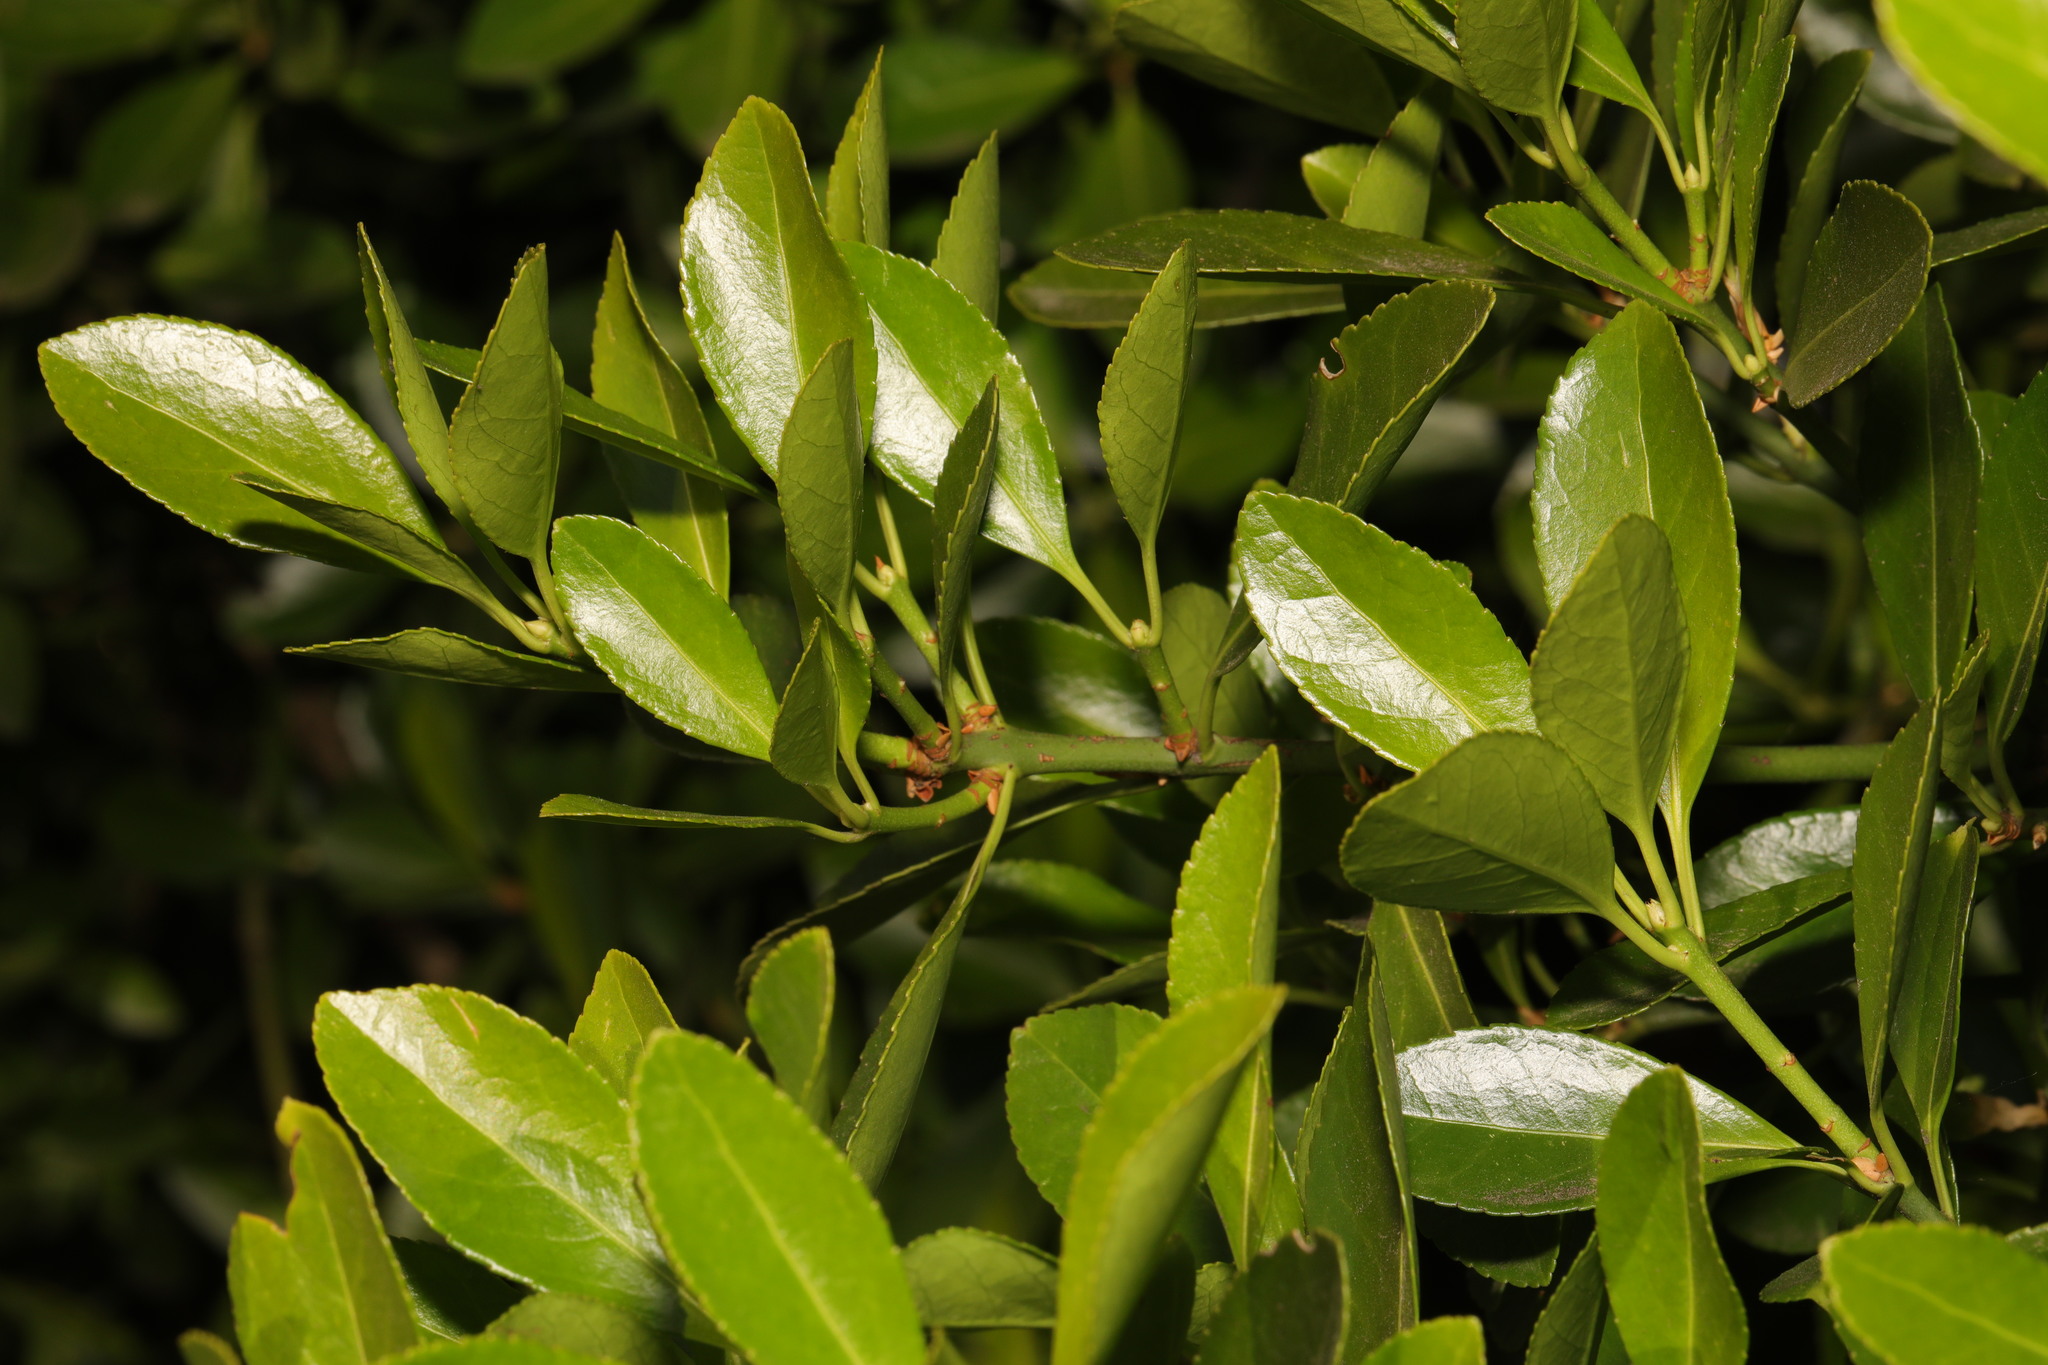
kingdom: Plantae
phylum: Tracheophyta
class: Magnoliopsida
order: Celastrales
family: Celastraceae
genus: Euonymus
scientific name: Euonymus japonicus
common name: Japanese spindletree
